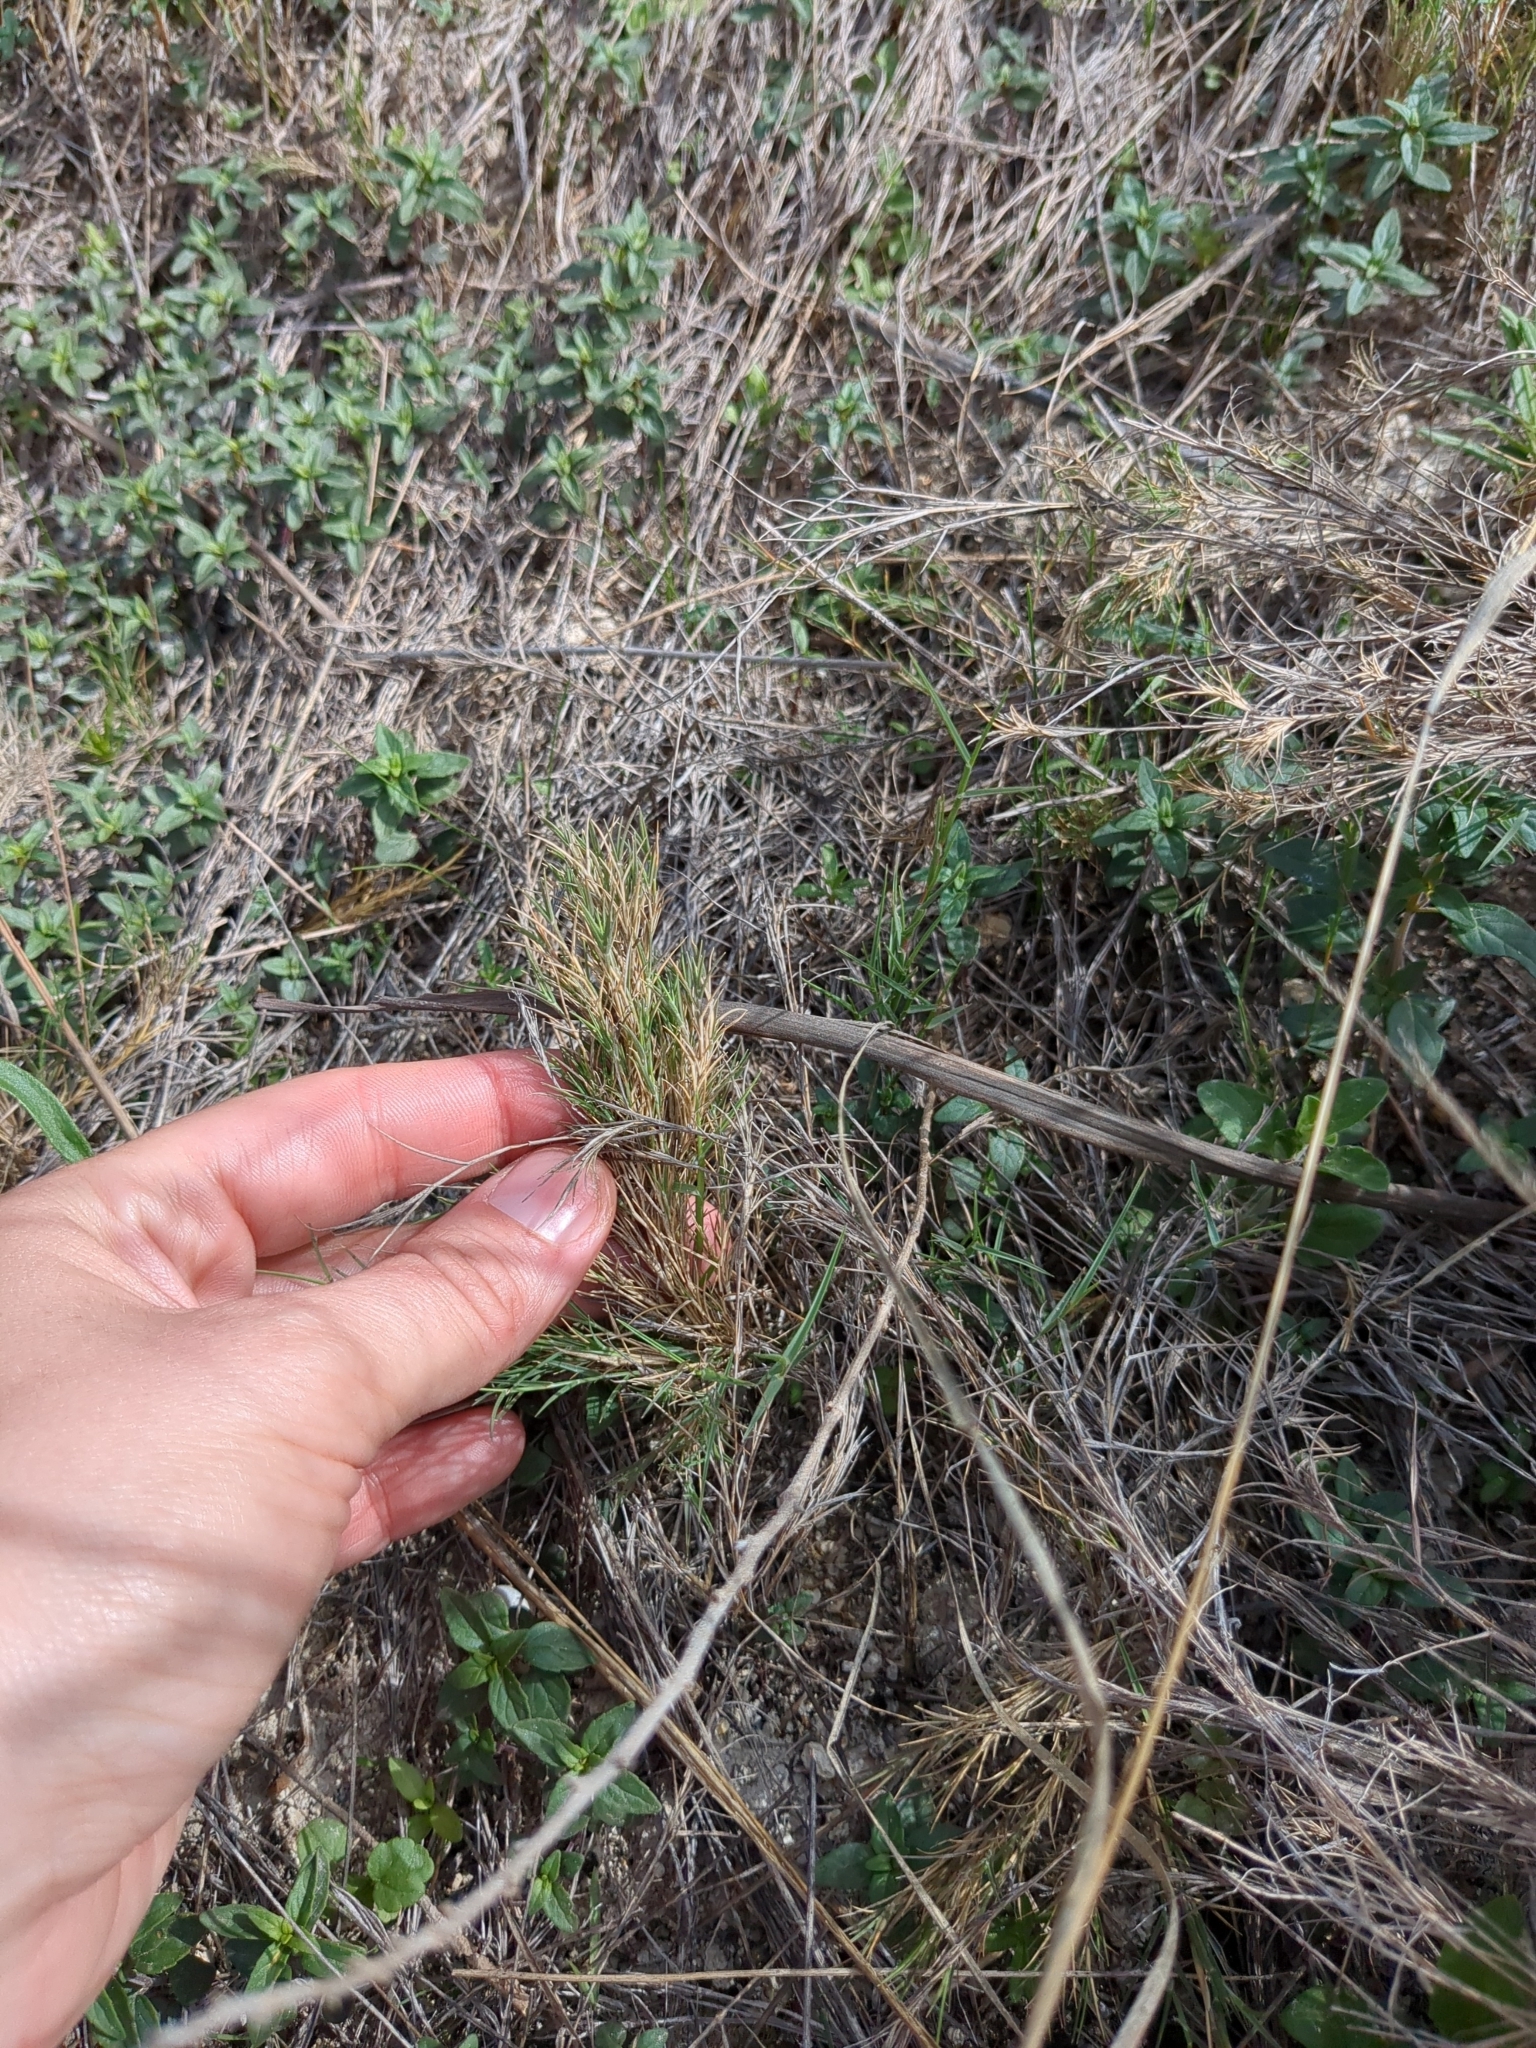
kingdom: Plantae
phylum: Tracheophyta
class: Liliopsida
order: Poales
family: Poaceae
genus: Muhlenbergia
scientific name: Muhlenbergia utilis
